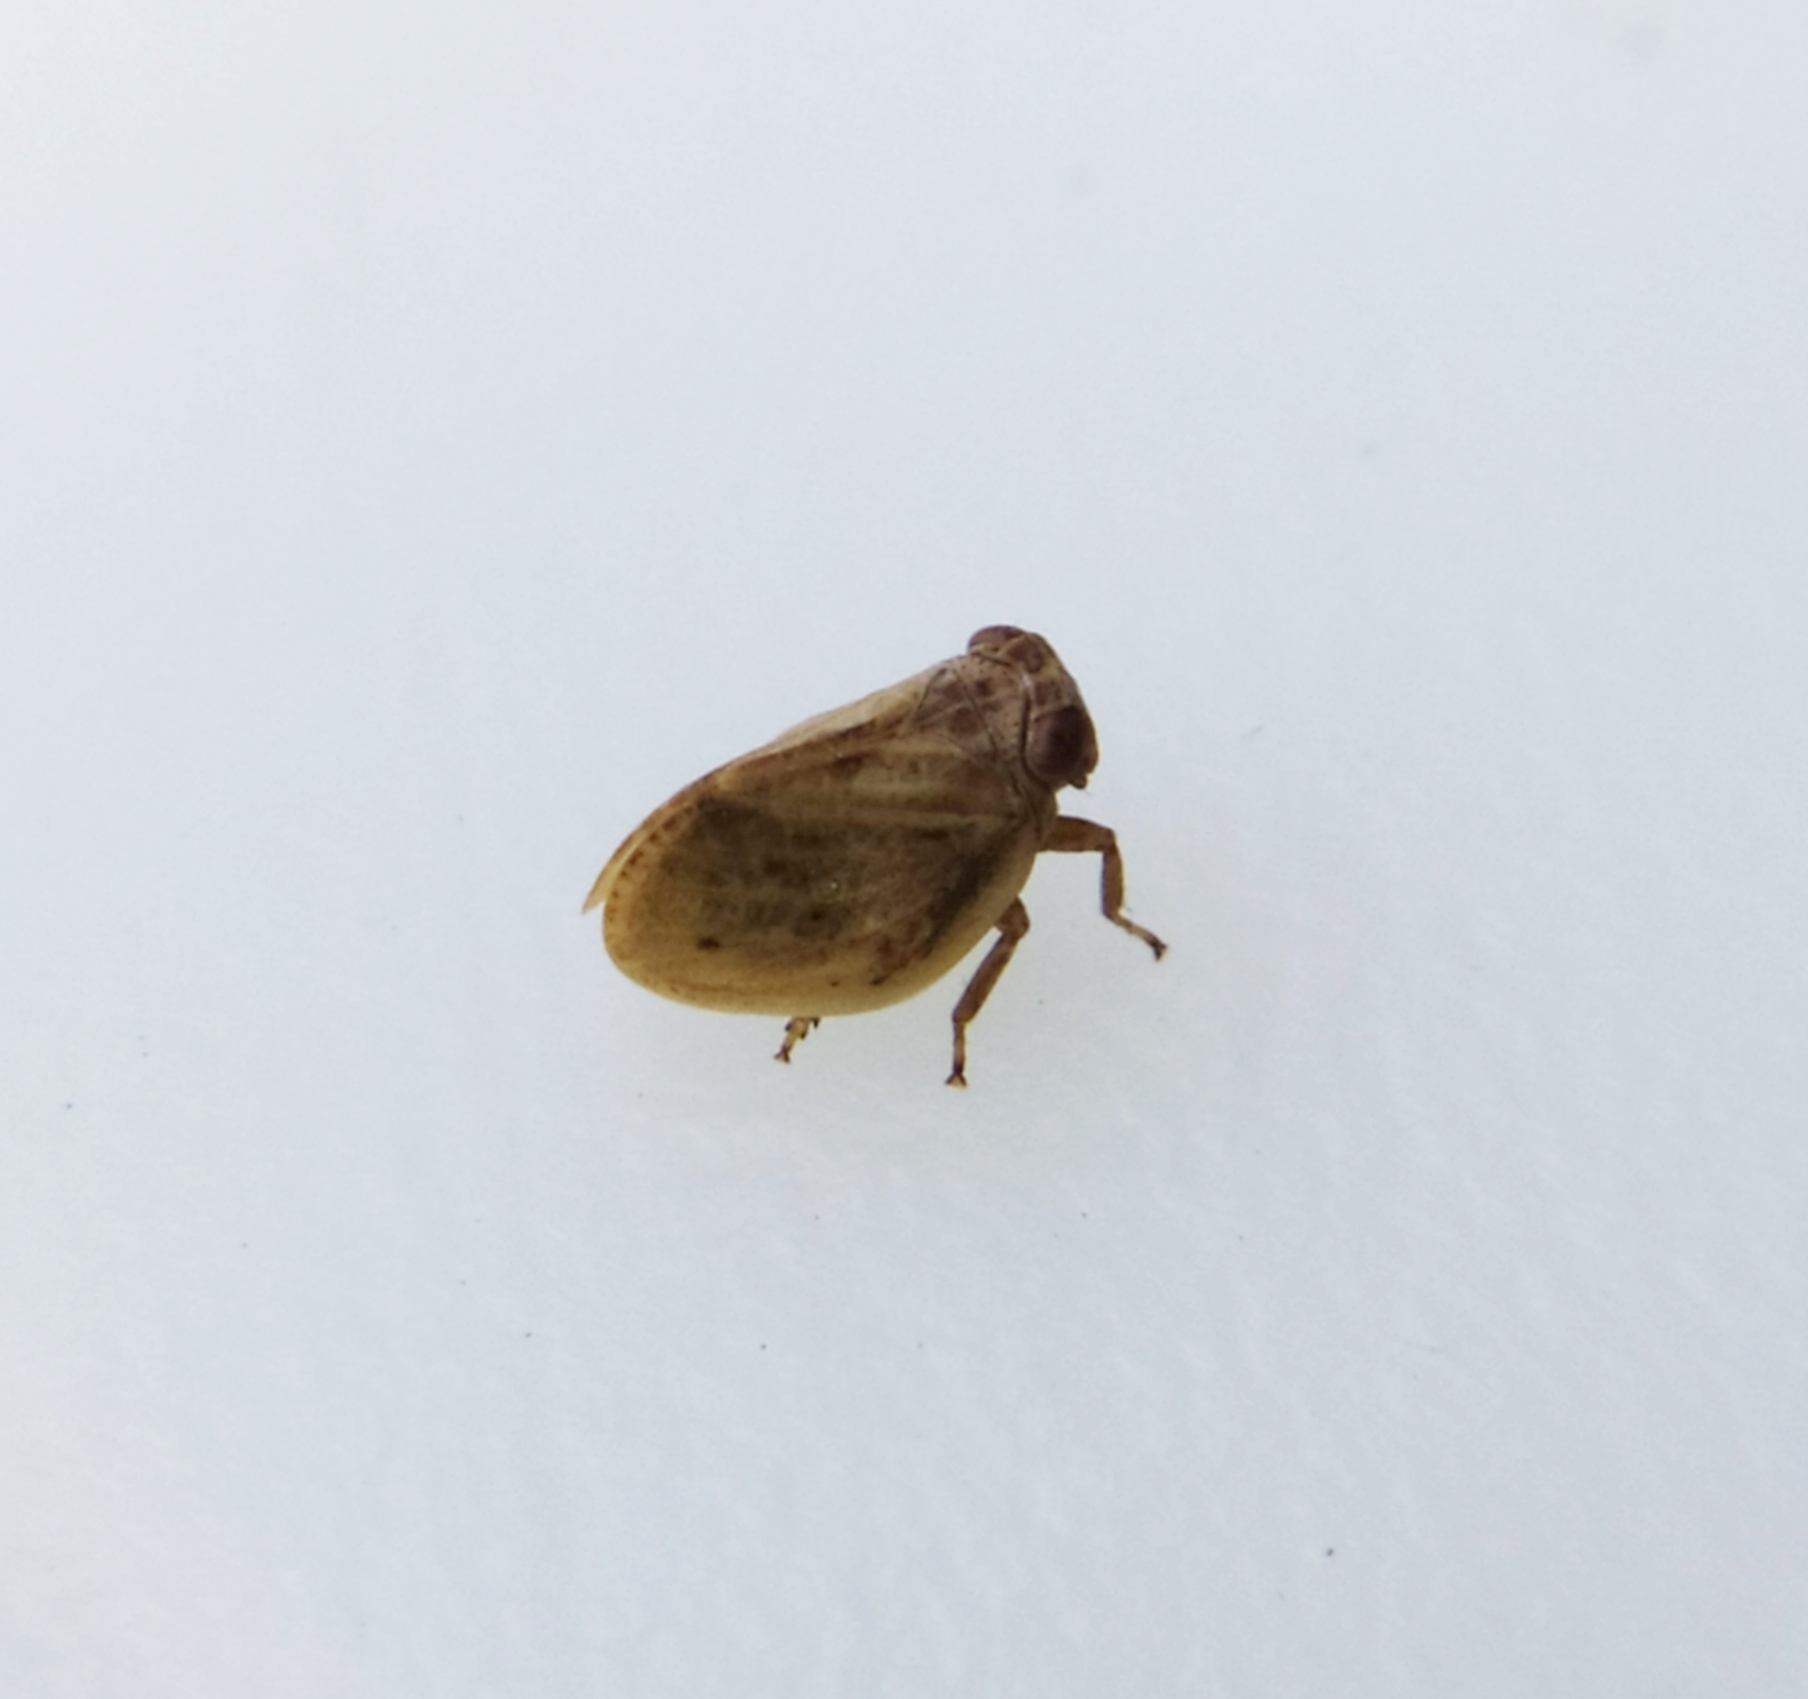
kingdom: Animalia
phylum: Arthropoda
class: Insecta
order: Hemiptera
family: Issidae
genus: Hysteropterum
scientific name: Hysteropterum reticulatum
